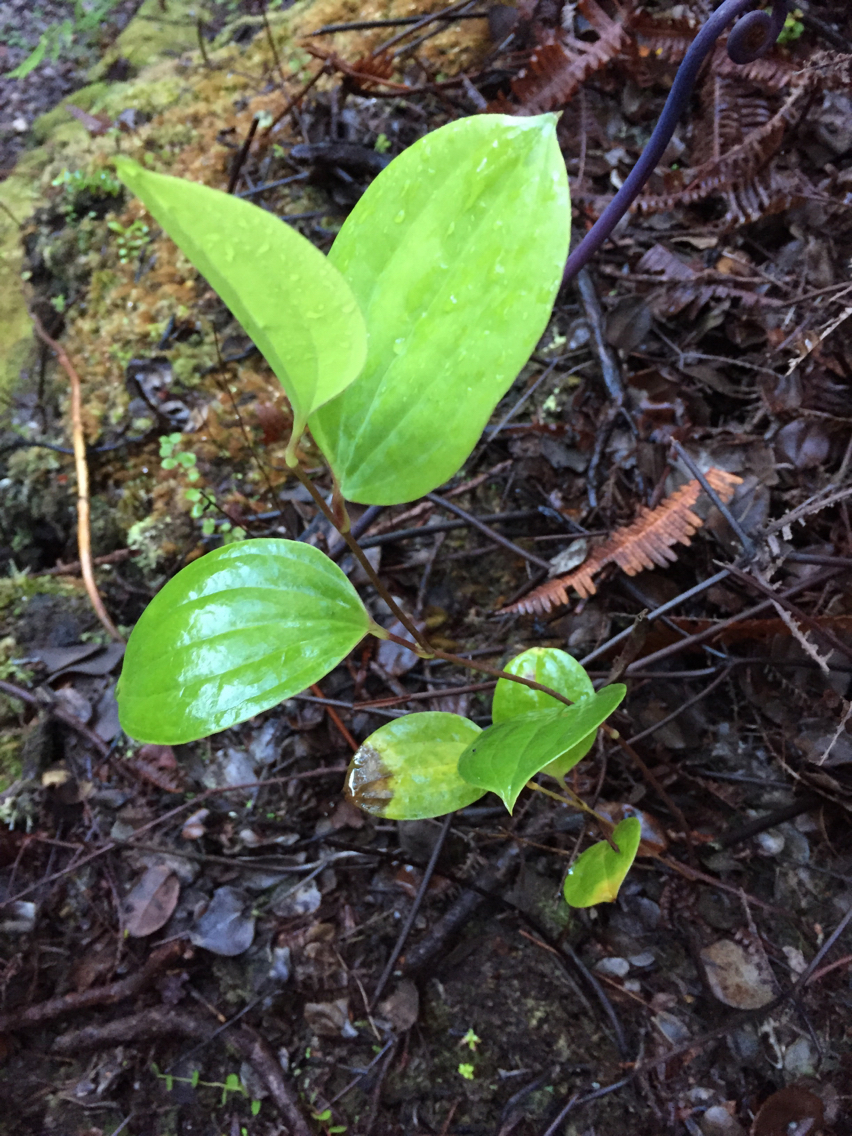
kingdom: Plantae
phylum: Tracheophyta
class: Liliopsida
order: Liliales
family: Smilacaceae
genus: Smilax
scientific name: Smilax melastomifolia
